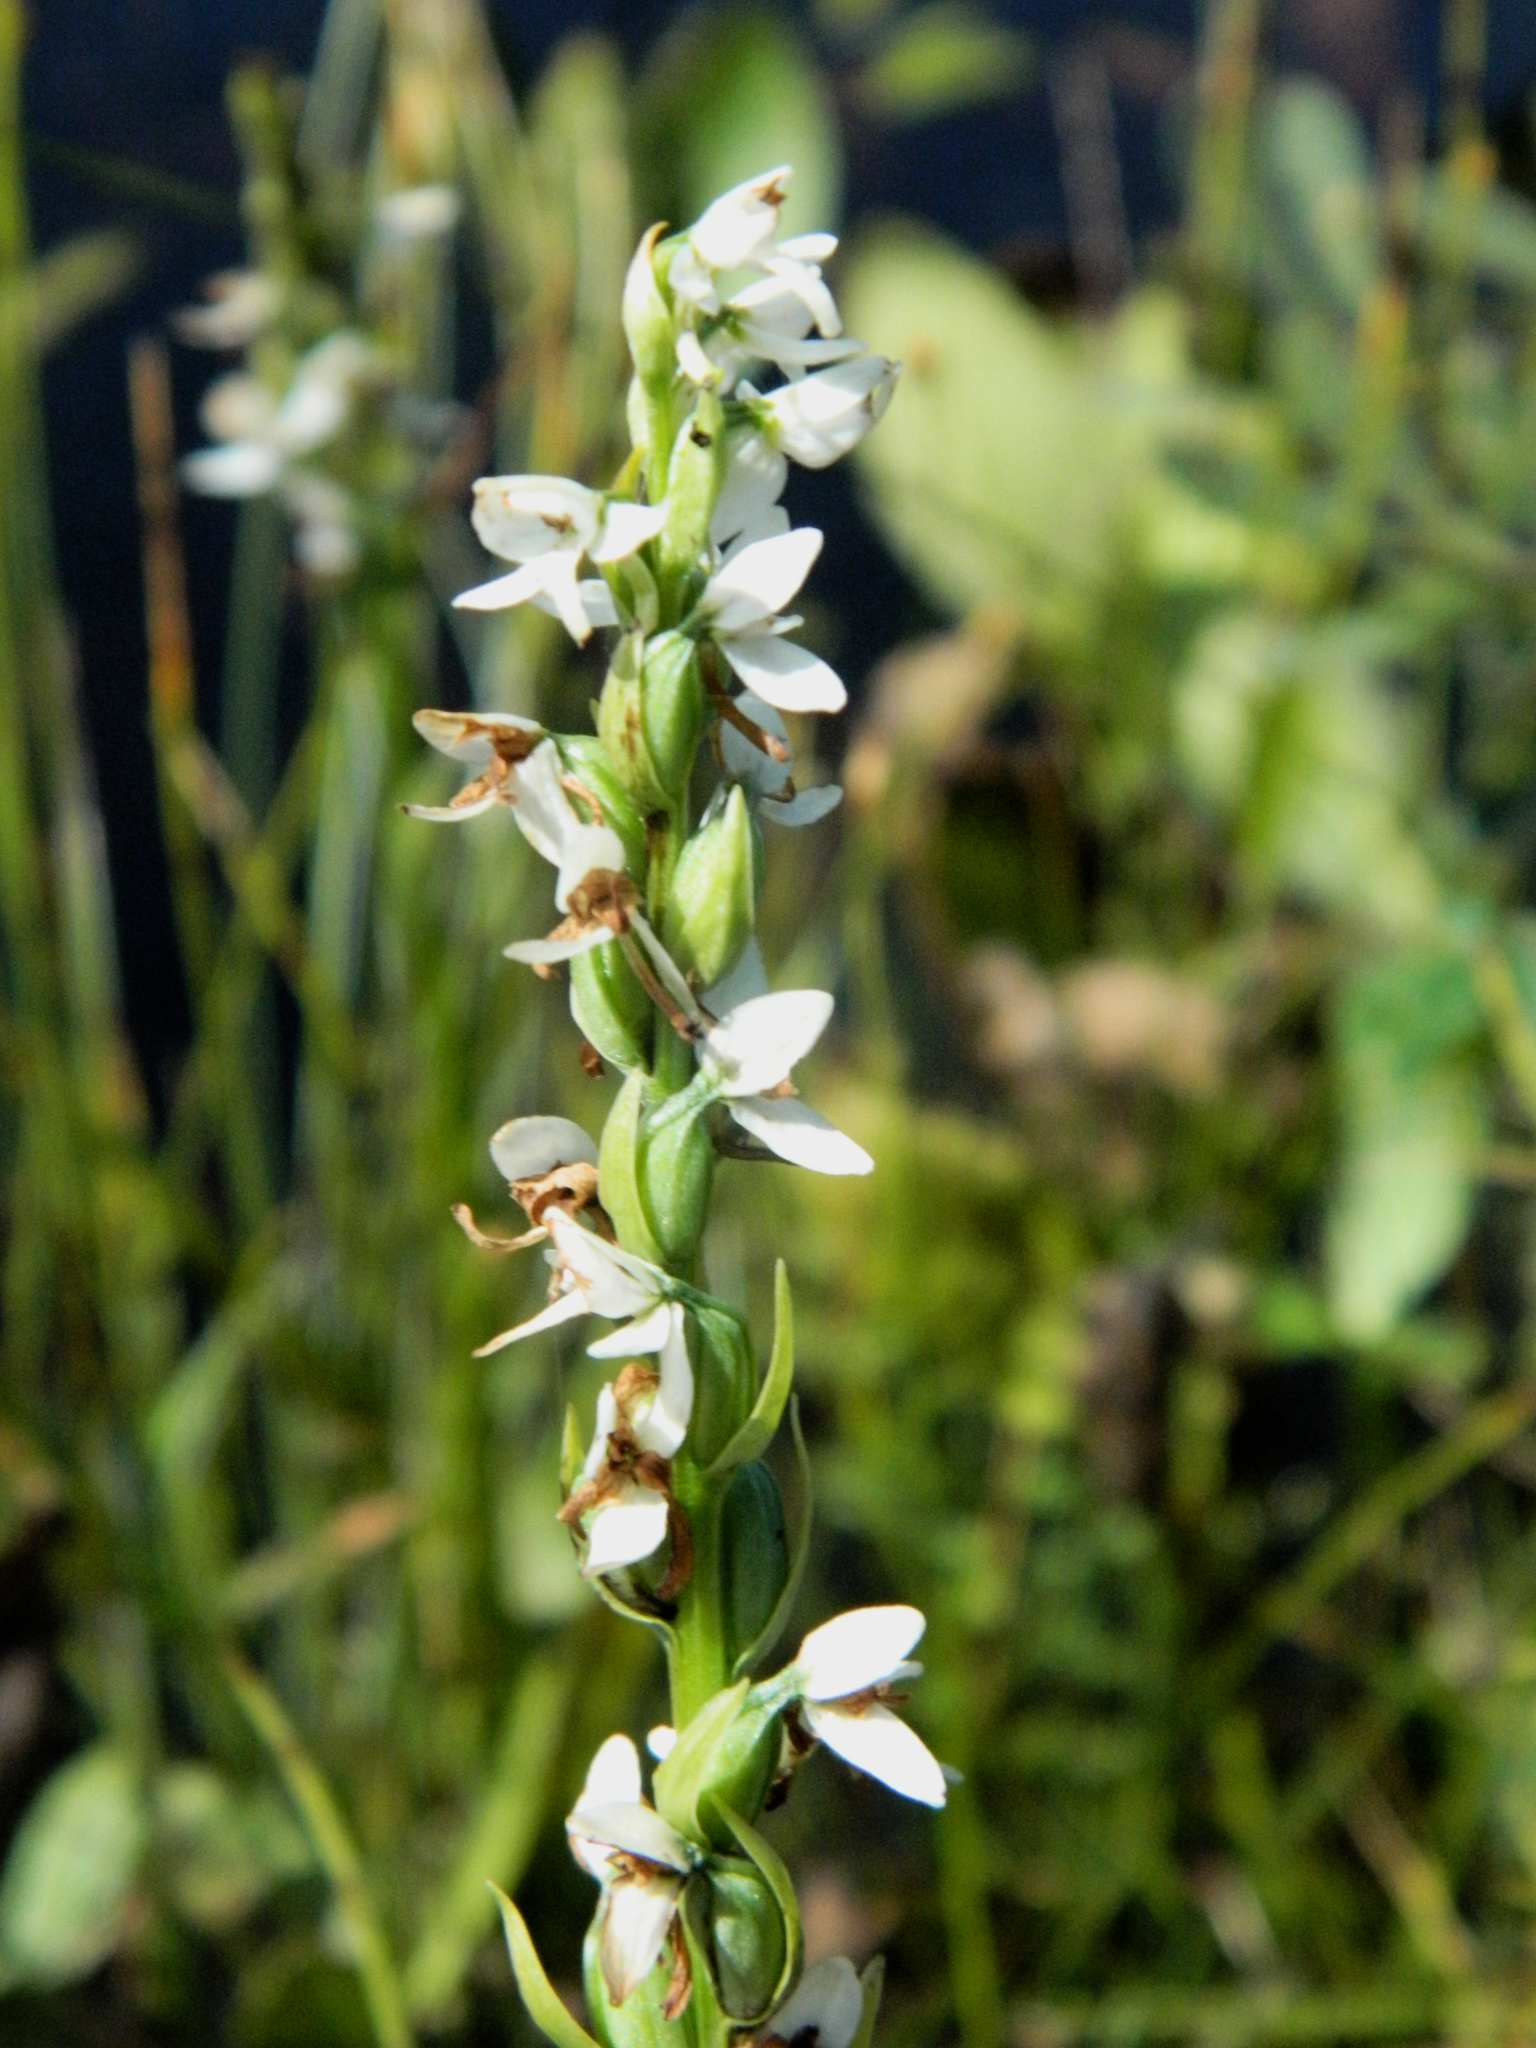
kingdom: Plantae
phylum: Tracheophyta
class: Liliopsida
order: Asparagales
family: Orchidaceae
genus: Platanthera
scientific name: Platanthera dilatata
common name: Bog candles
